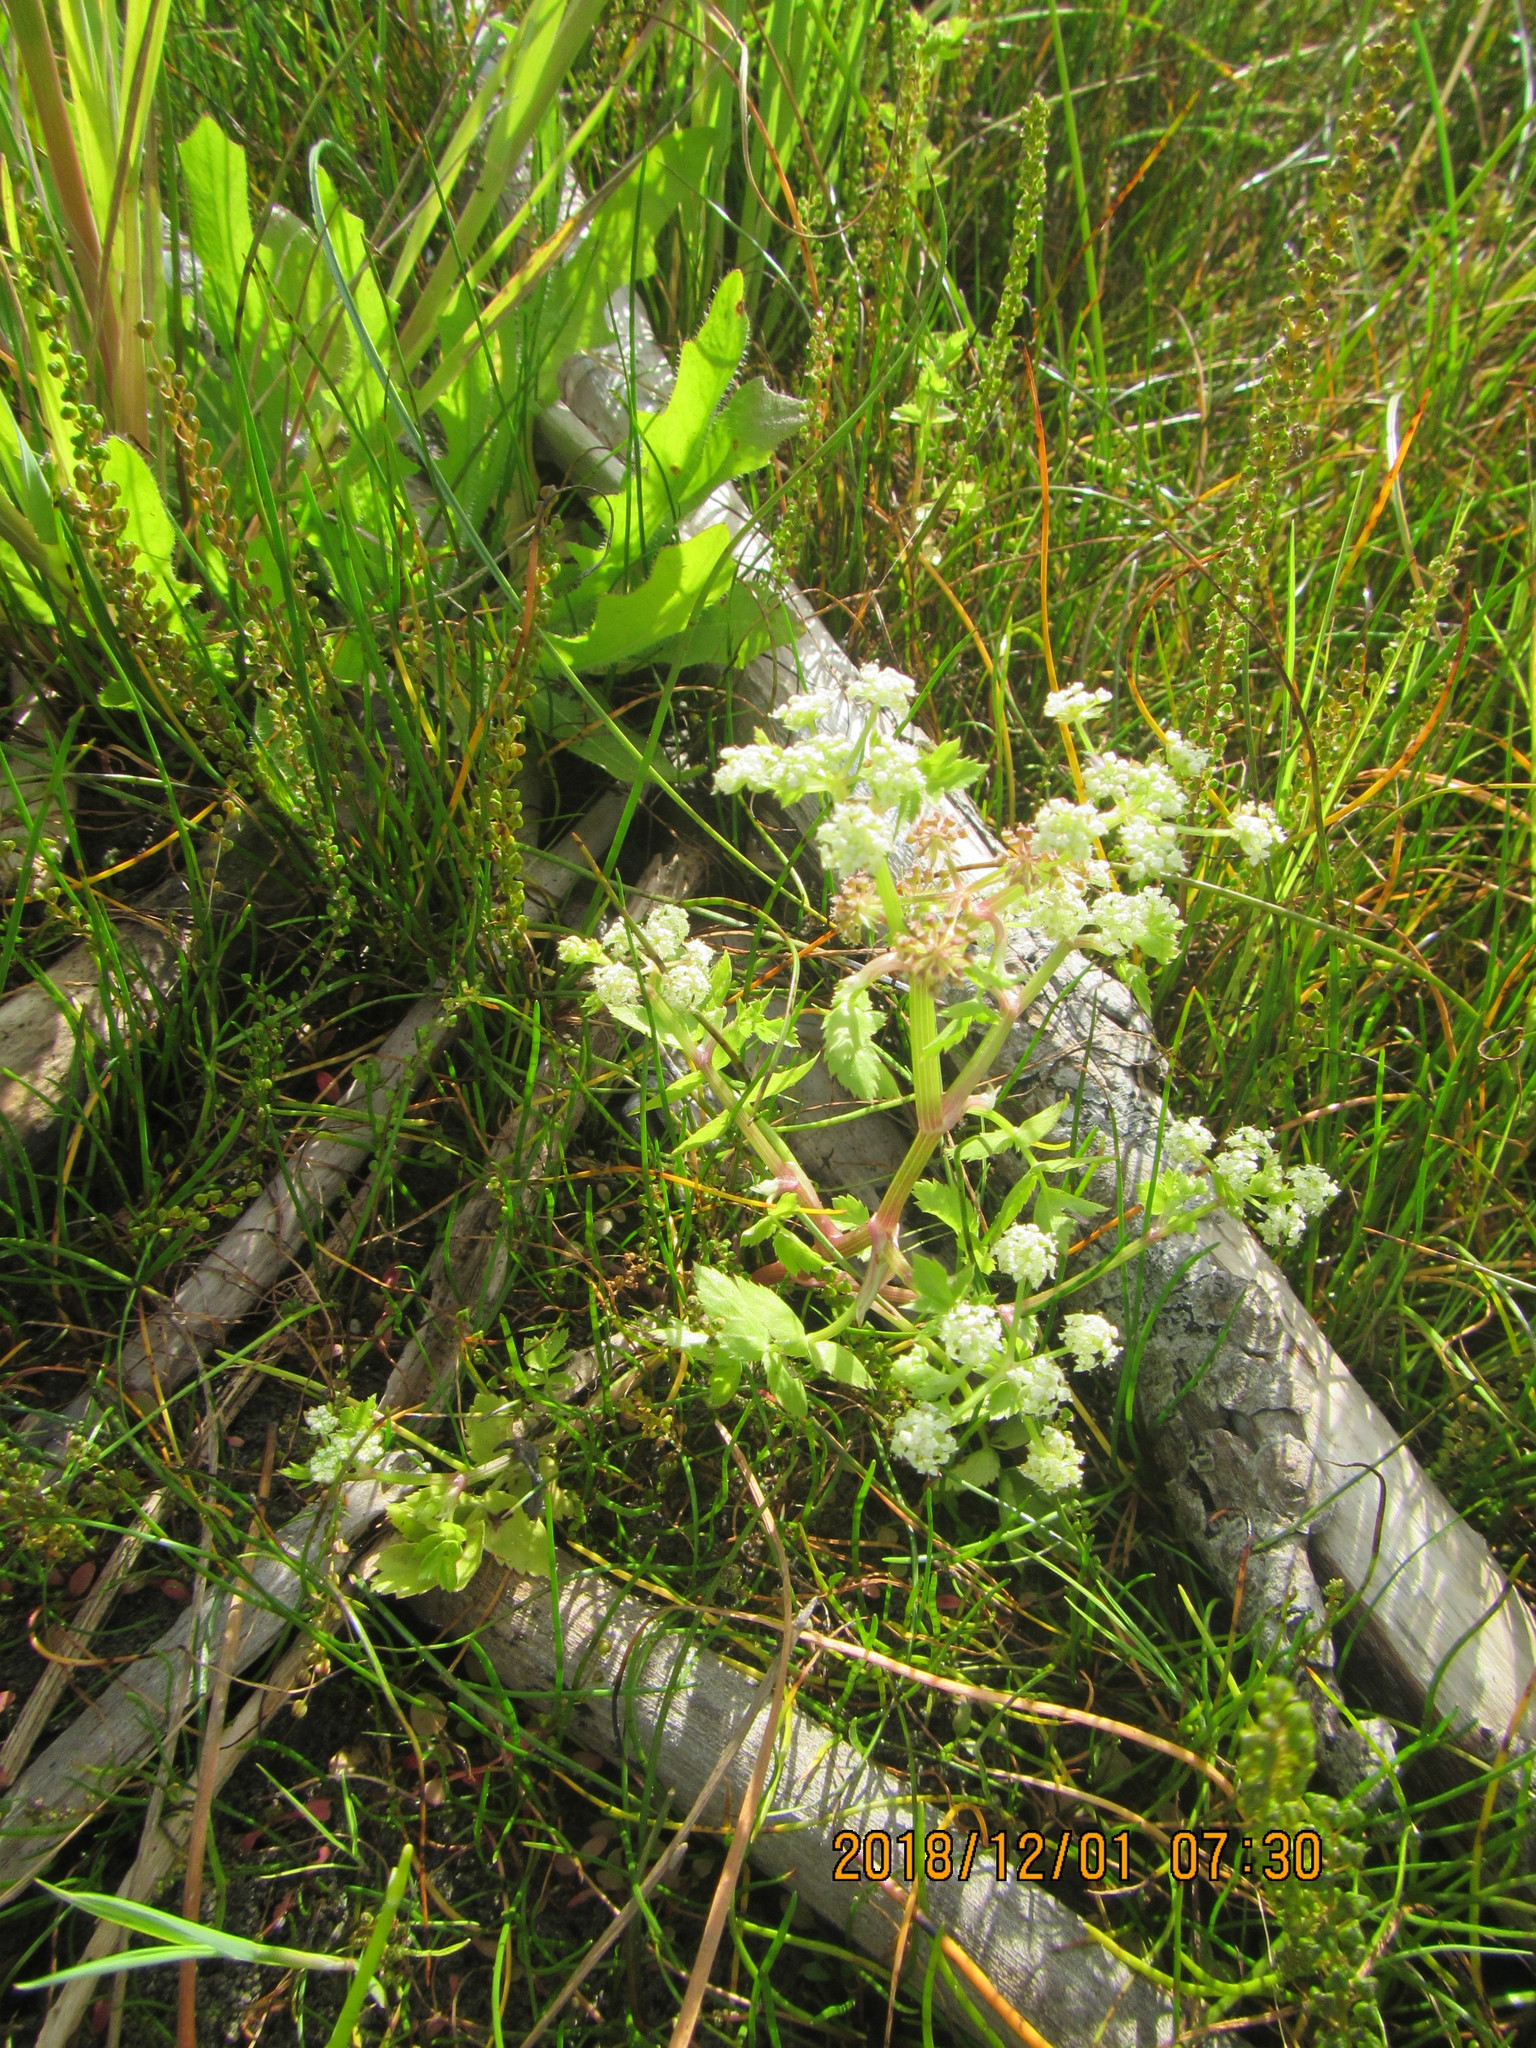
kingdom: Plantae
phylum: Tracheophyta
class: Magnoliopsida
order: Apiales
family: Apiaceae
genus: Helosciadium
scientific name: Helosciadium nodiflorum
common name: Fool's-watercress
